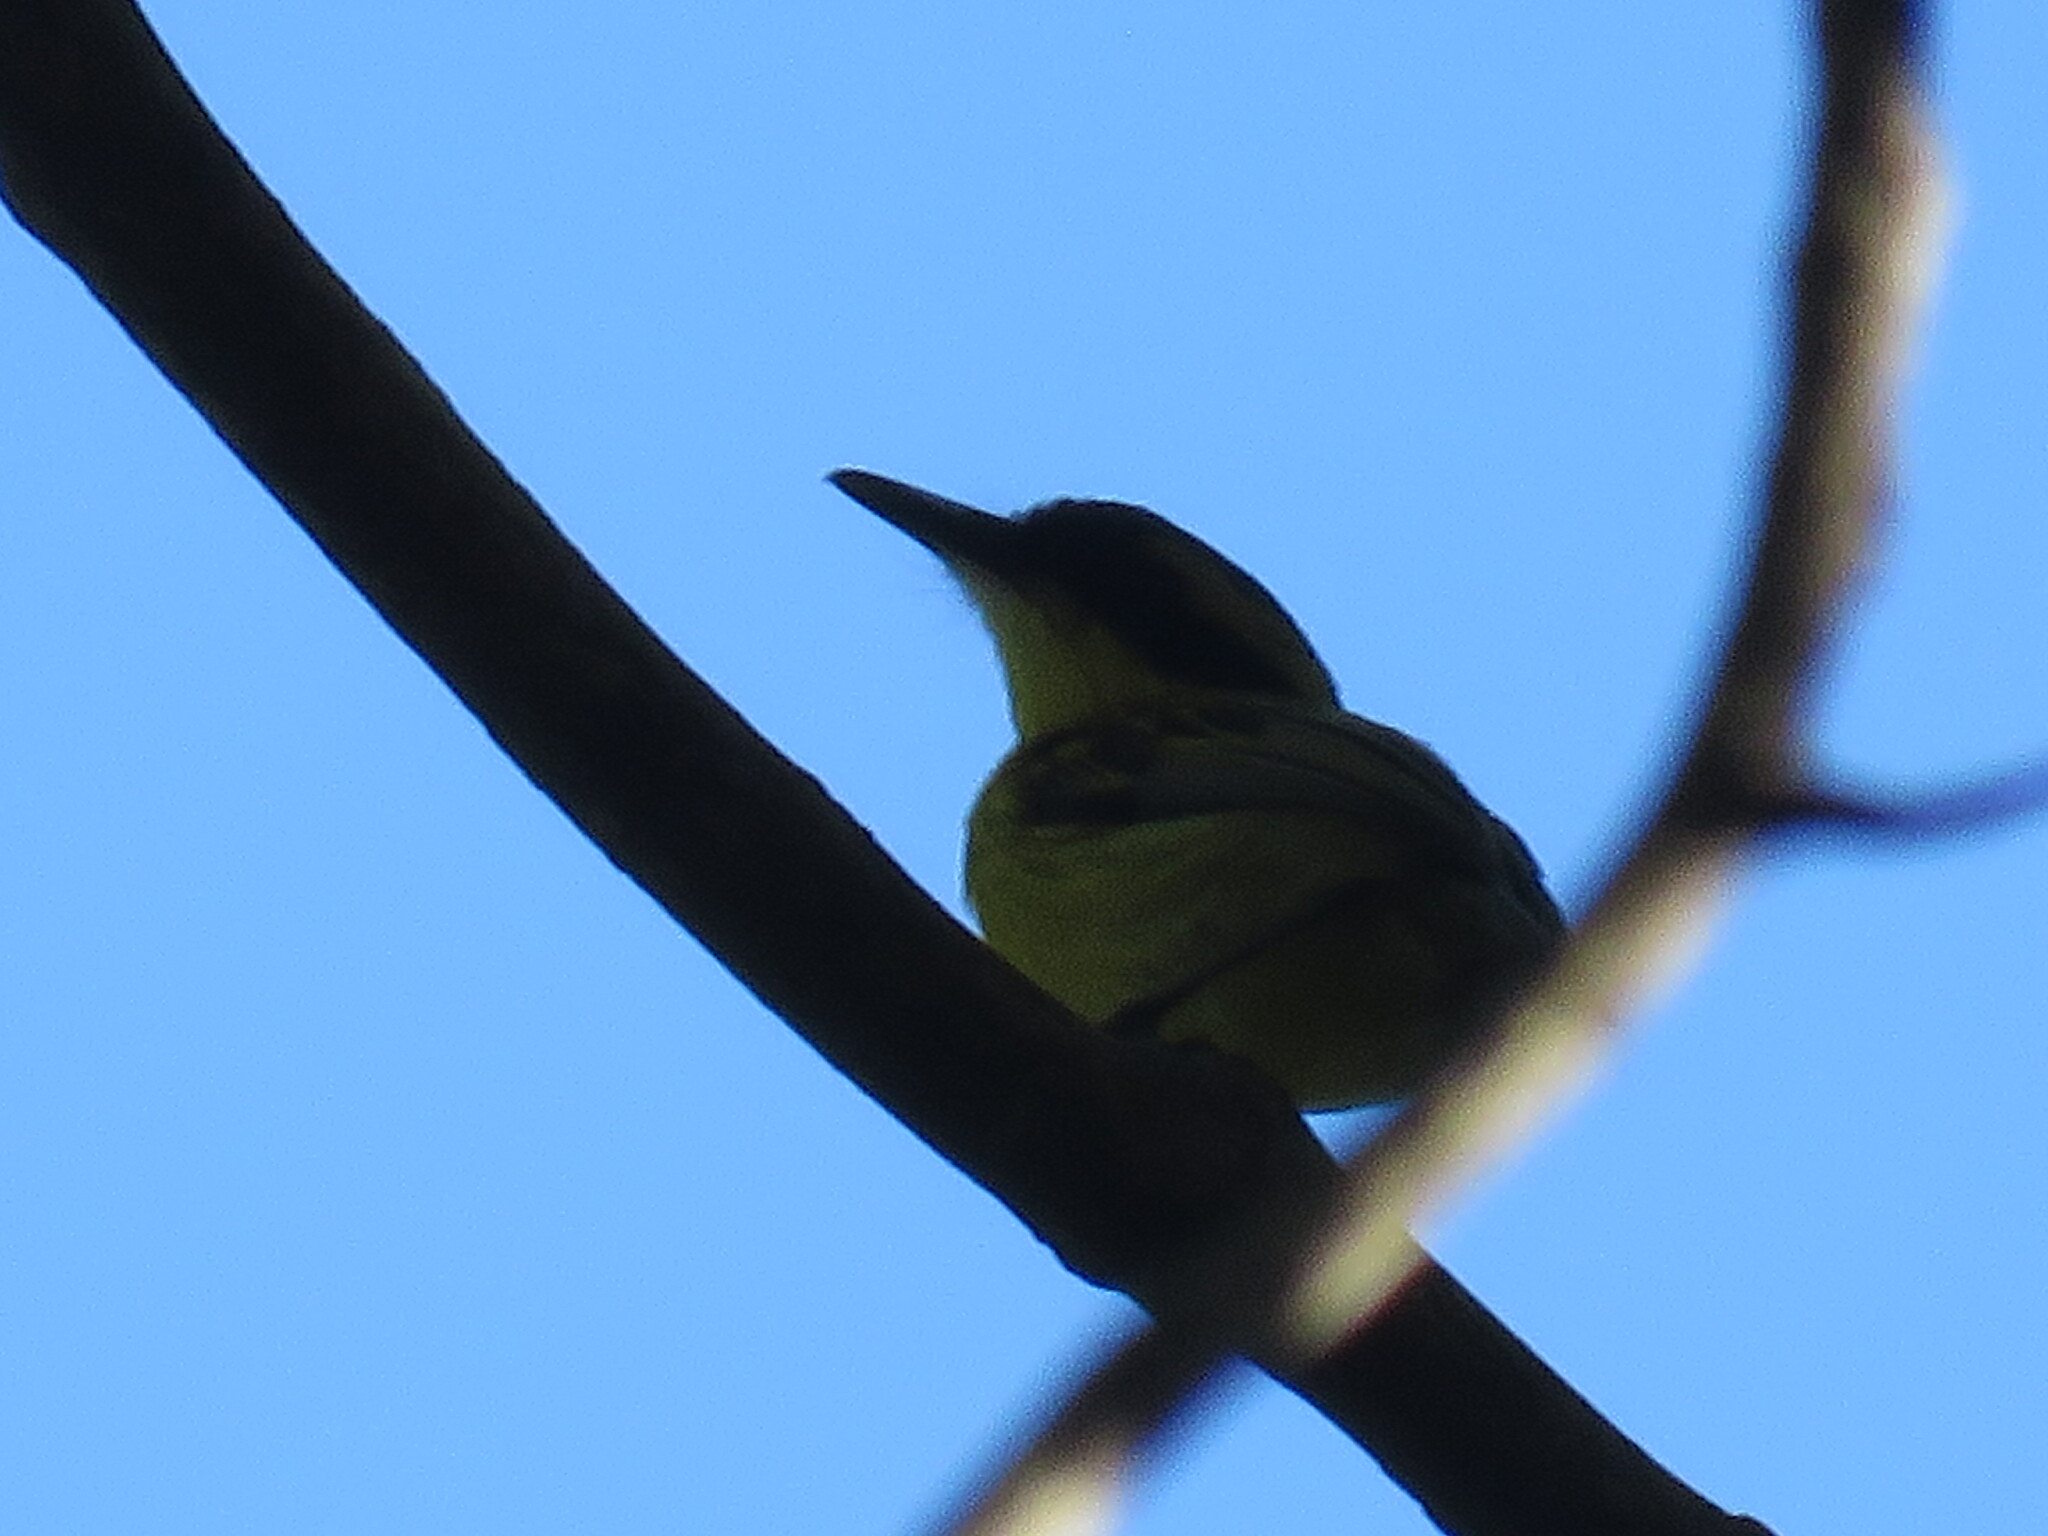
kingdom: Animalia
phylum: Chordata
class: Aves
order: Passeriformes
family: Tyrannidae
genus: Todirostrum
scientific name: Todirostrum chrysocrotaphum
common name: Yellow-browed tody-flycatcher
